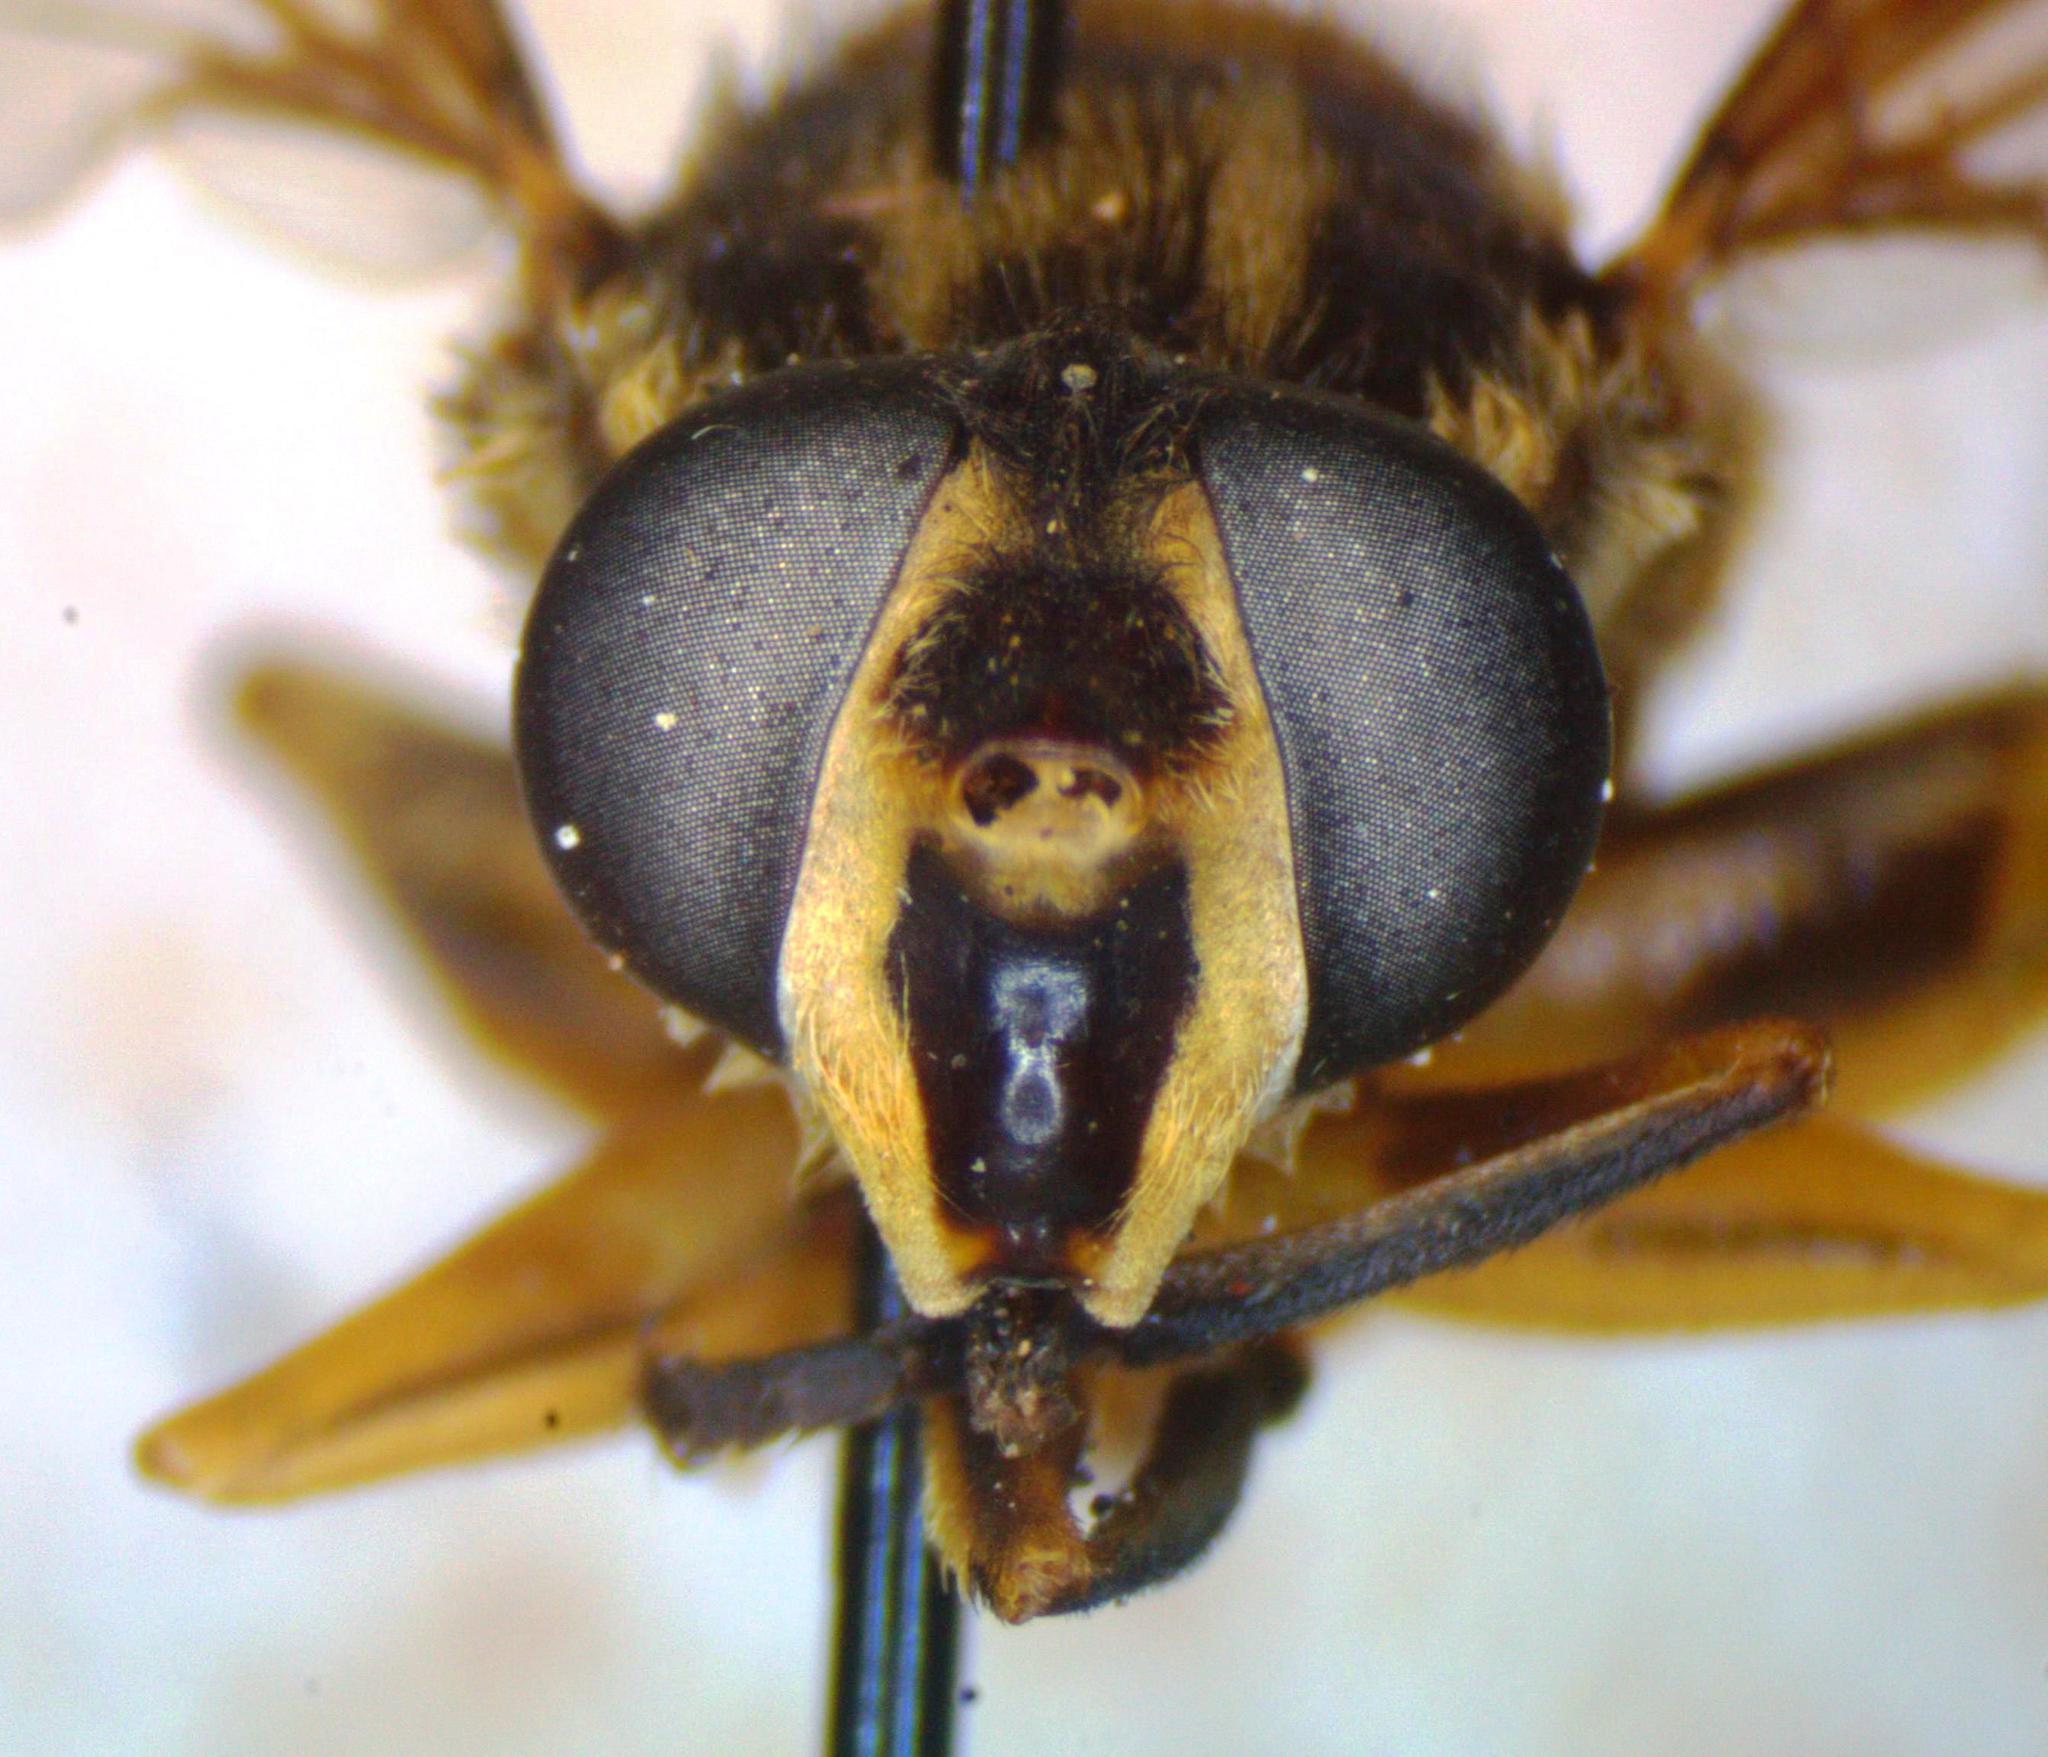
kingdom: Animalia
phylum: Arthropoda
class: Insecta
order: Diptera
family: Syrphidae
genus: Lycopale
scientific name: Lycopale woodi
